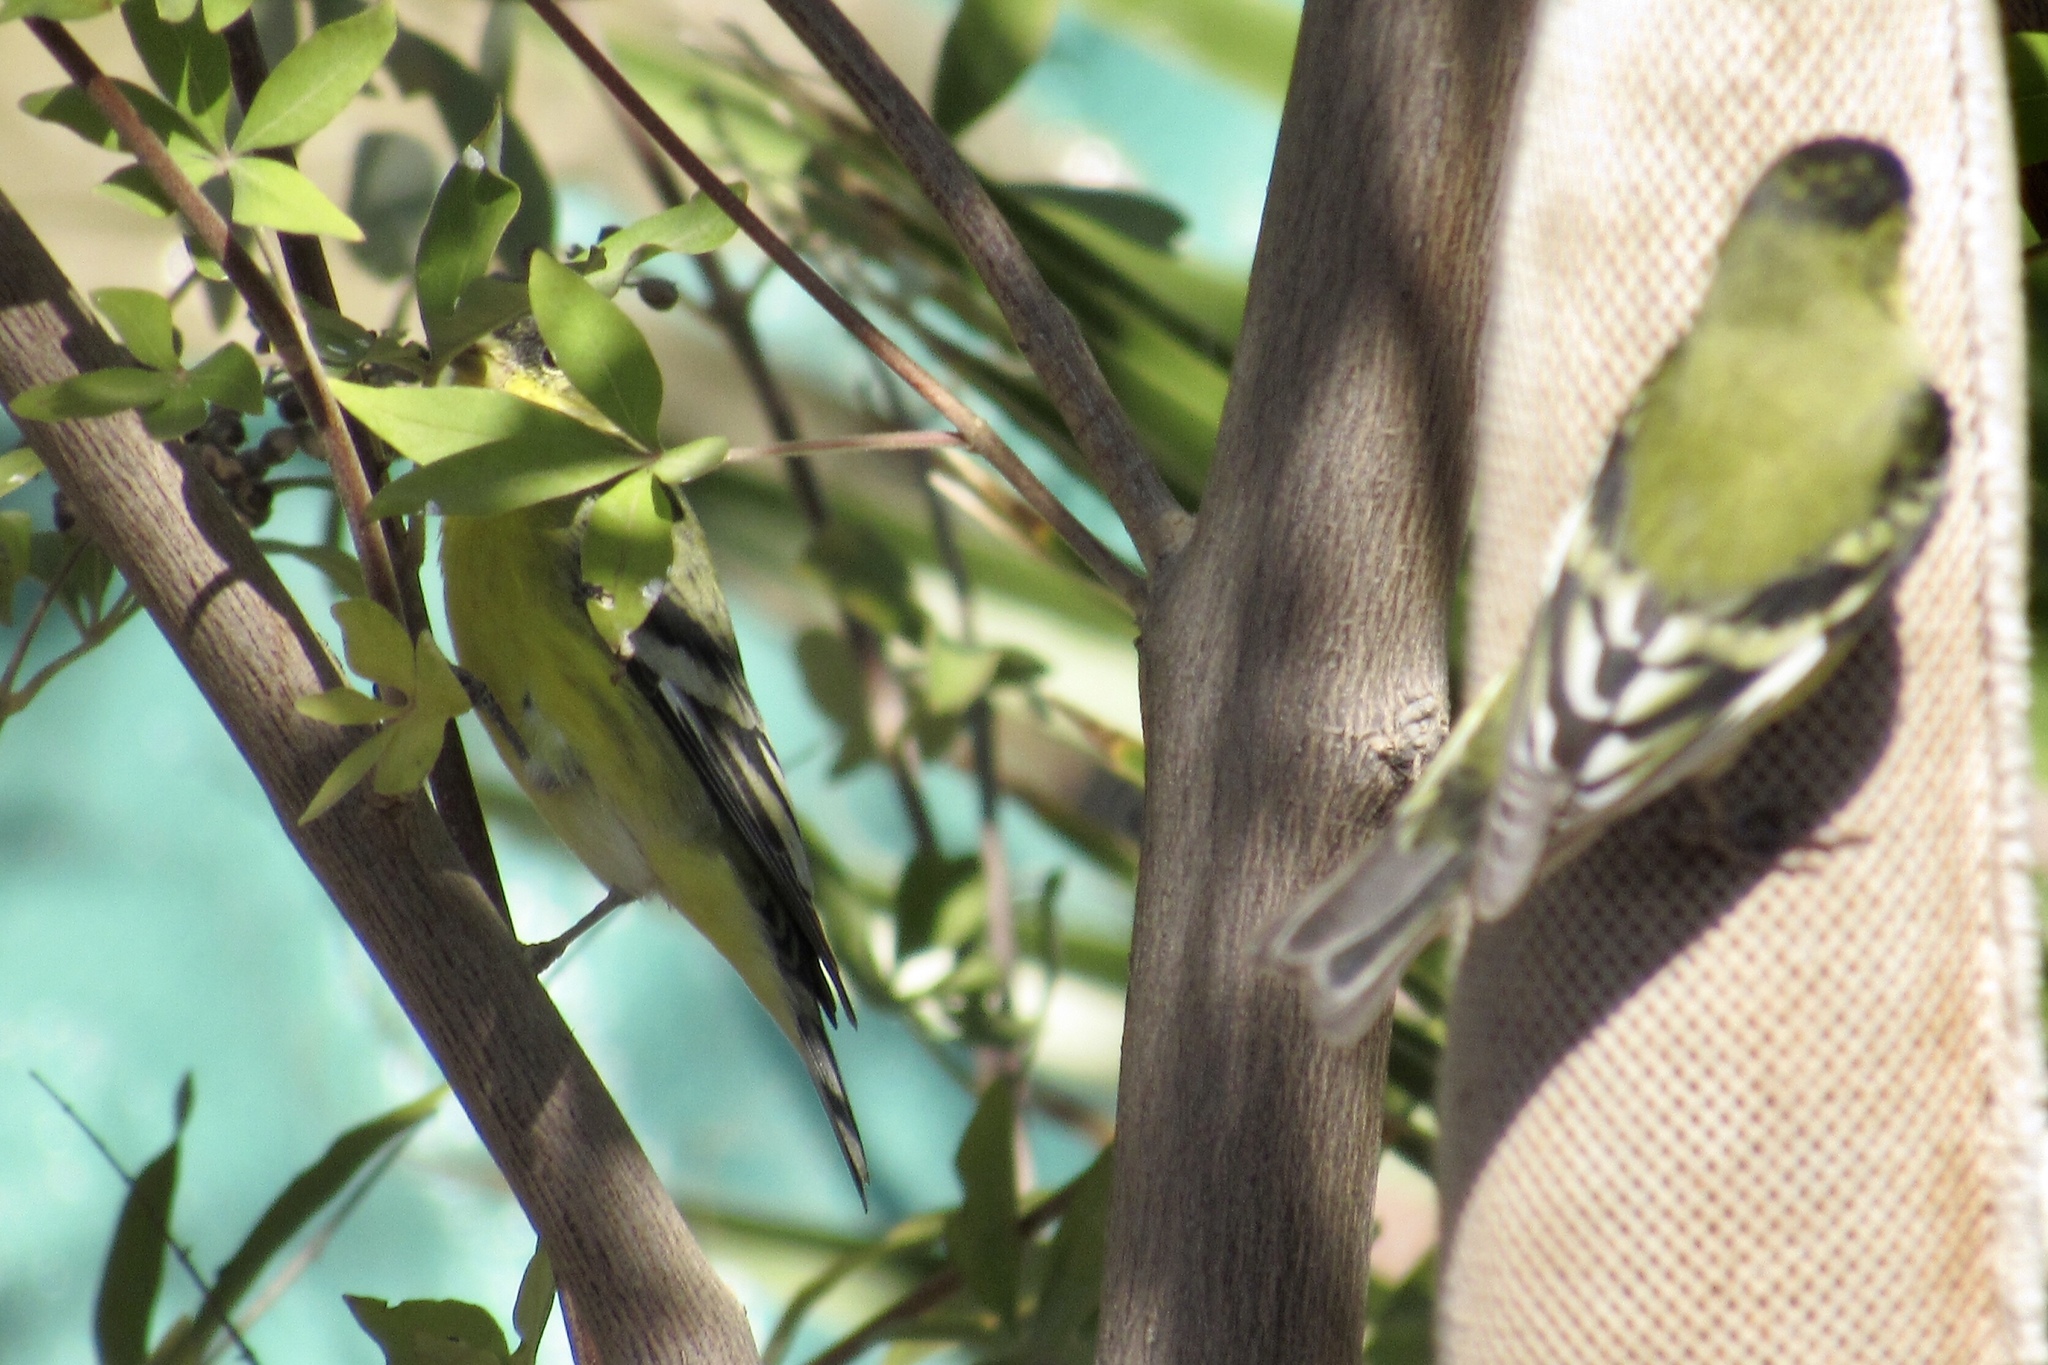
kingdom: Animalia
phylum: Chordata
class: Aves
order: Passeriformes
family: Fringillidae
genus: Spinus
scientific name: Spinus psaltria
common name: Lesser goldfinch
